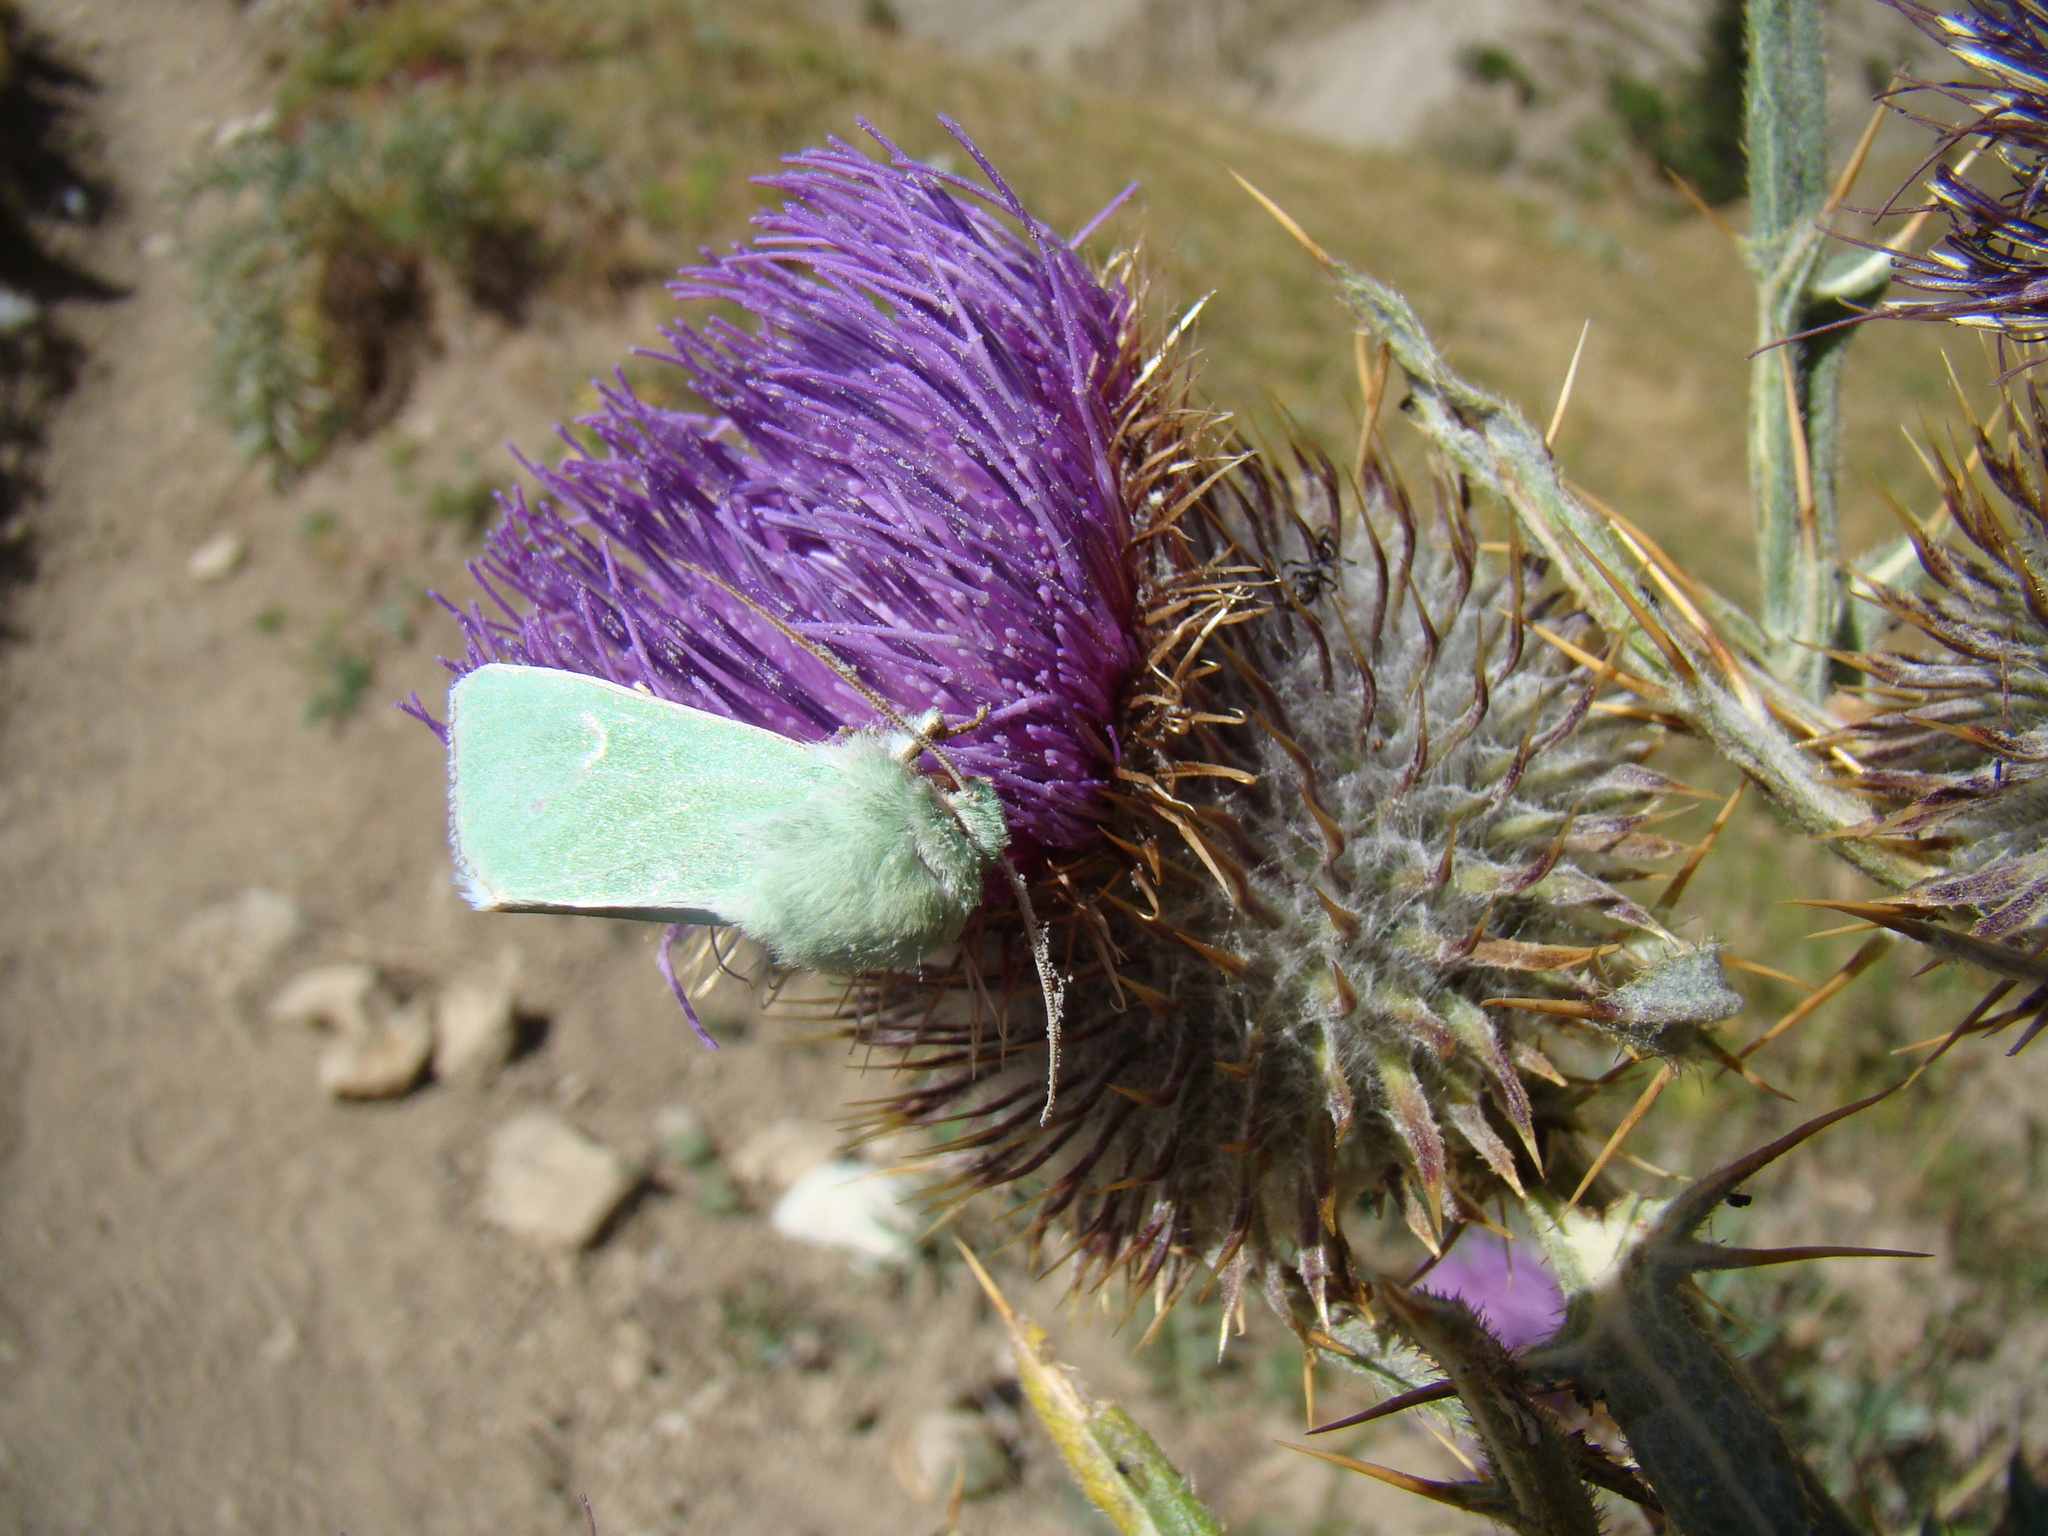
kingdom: Plantae
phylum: Tracheophyta
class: Magnoliopsida
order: Asterales
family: Asteraceae
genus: Onopordum
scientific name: Onopordum acanthium
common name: Scotch thistle
